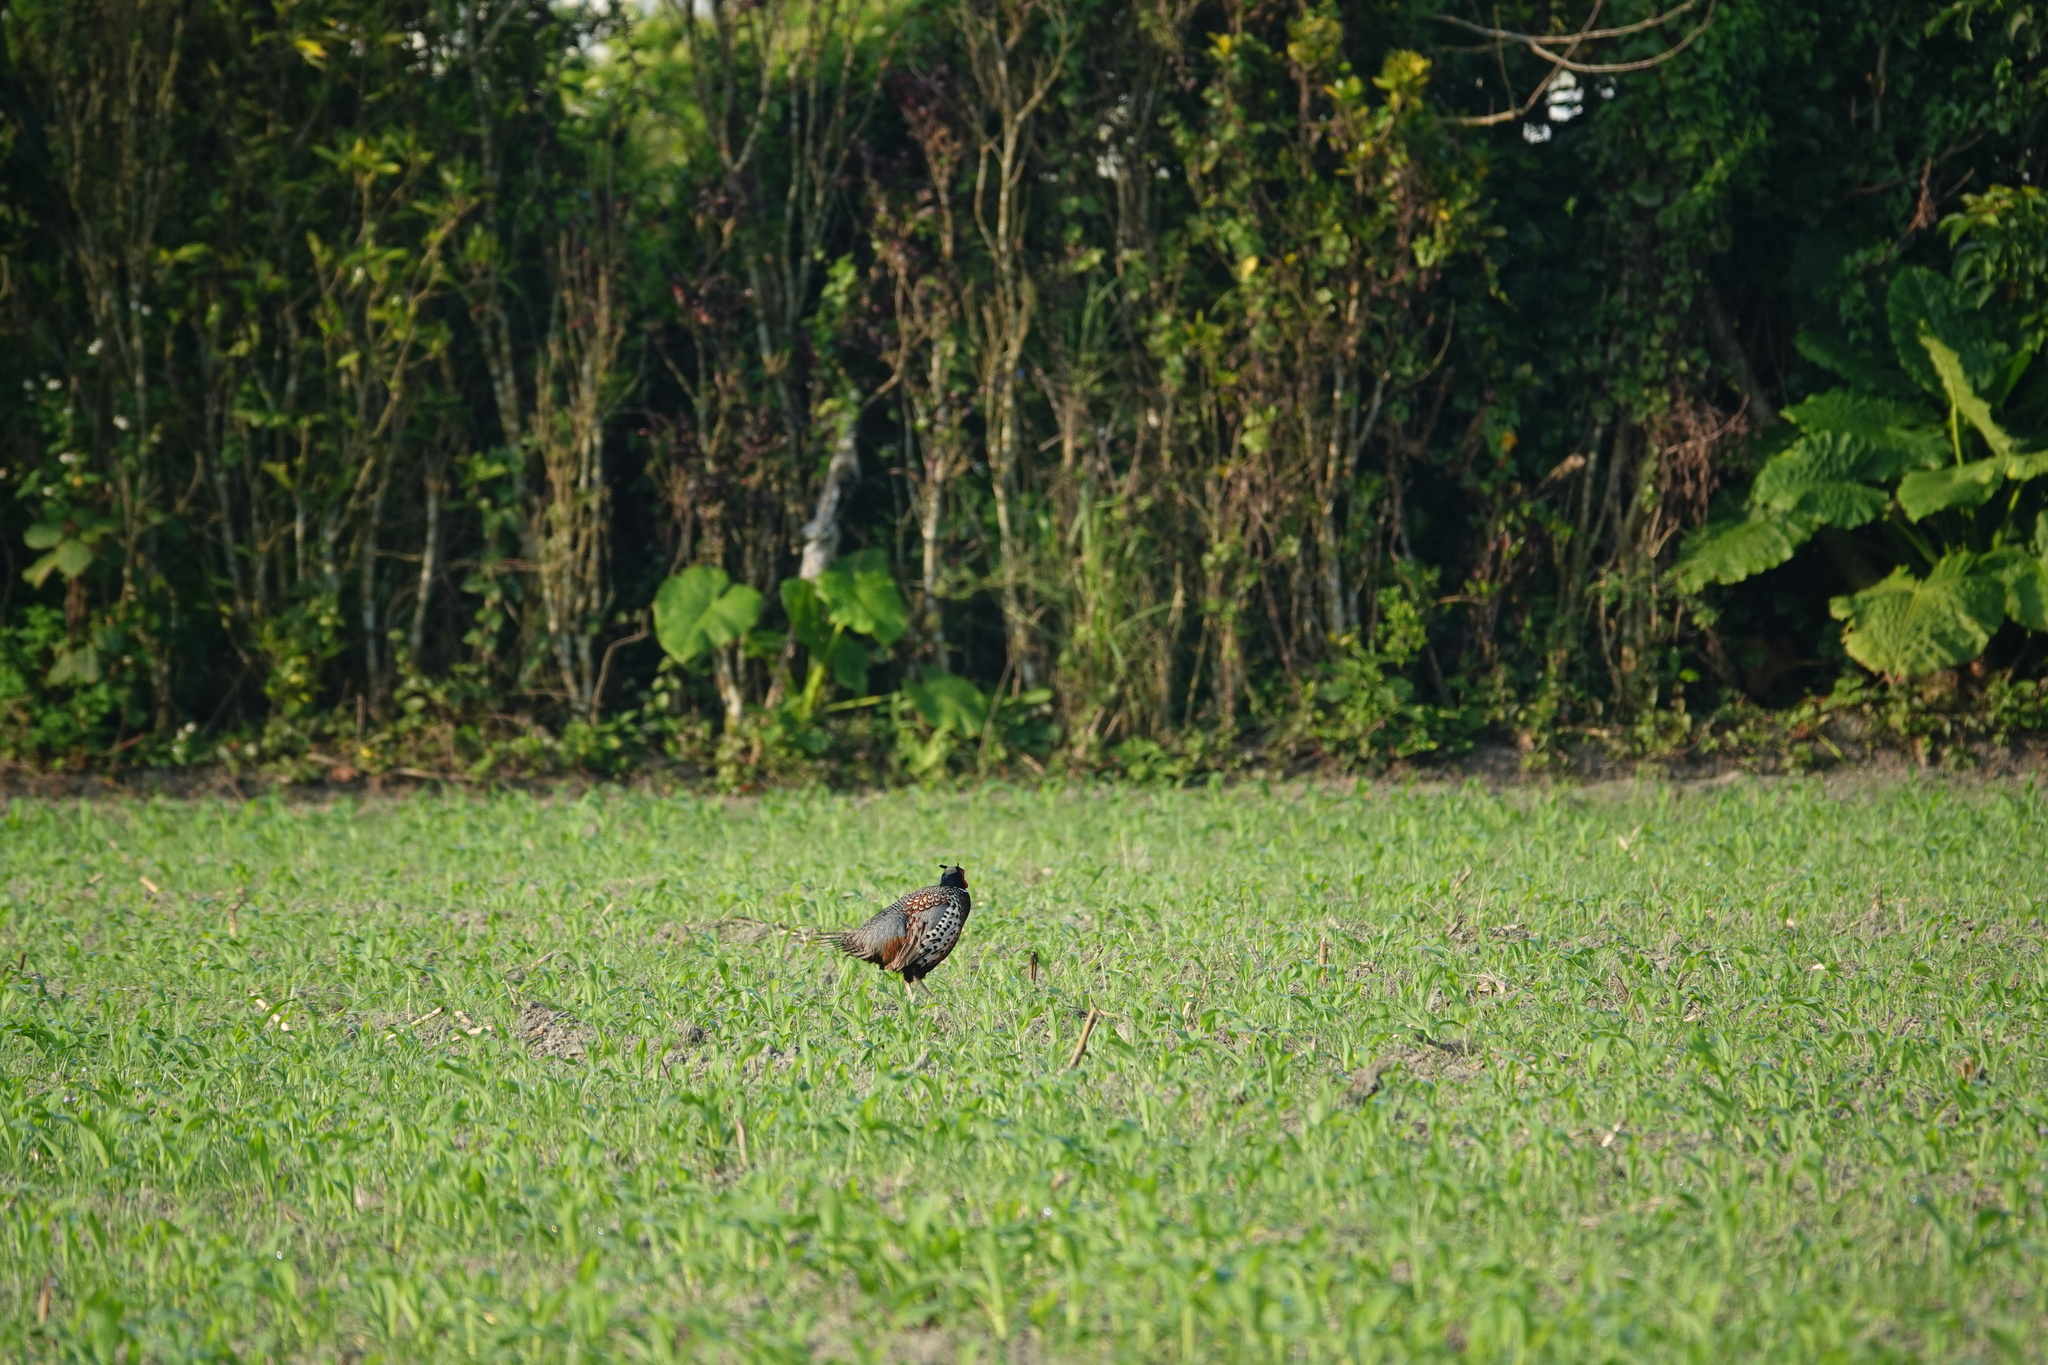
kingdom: Animalia
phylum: Chordata
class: Aves
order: Galliformes
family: Phasianidae
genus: Phasianus
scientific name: Phasianus colchicus
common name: Common pheasant
